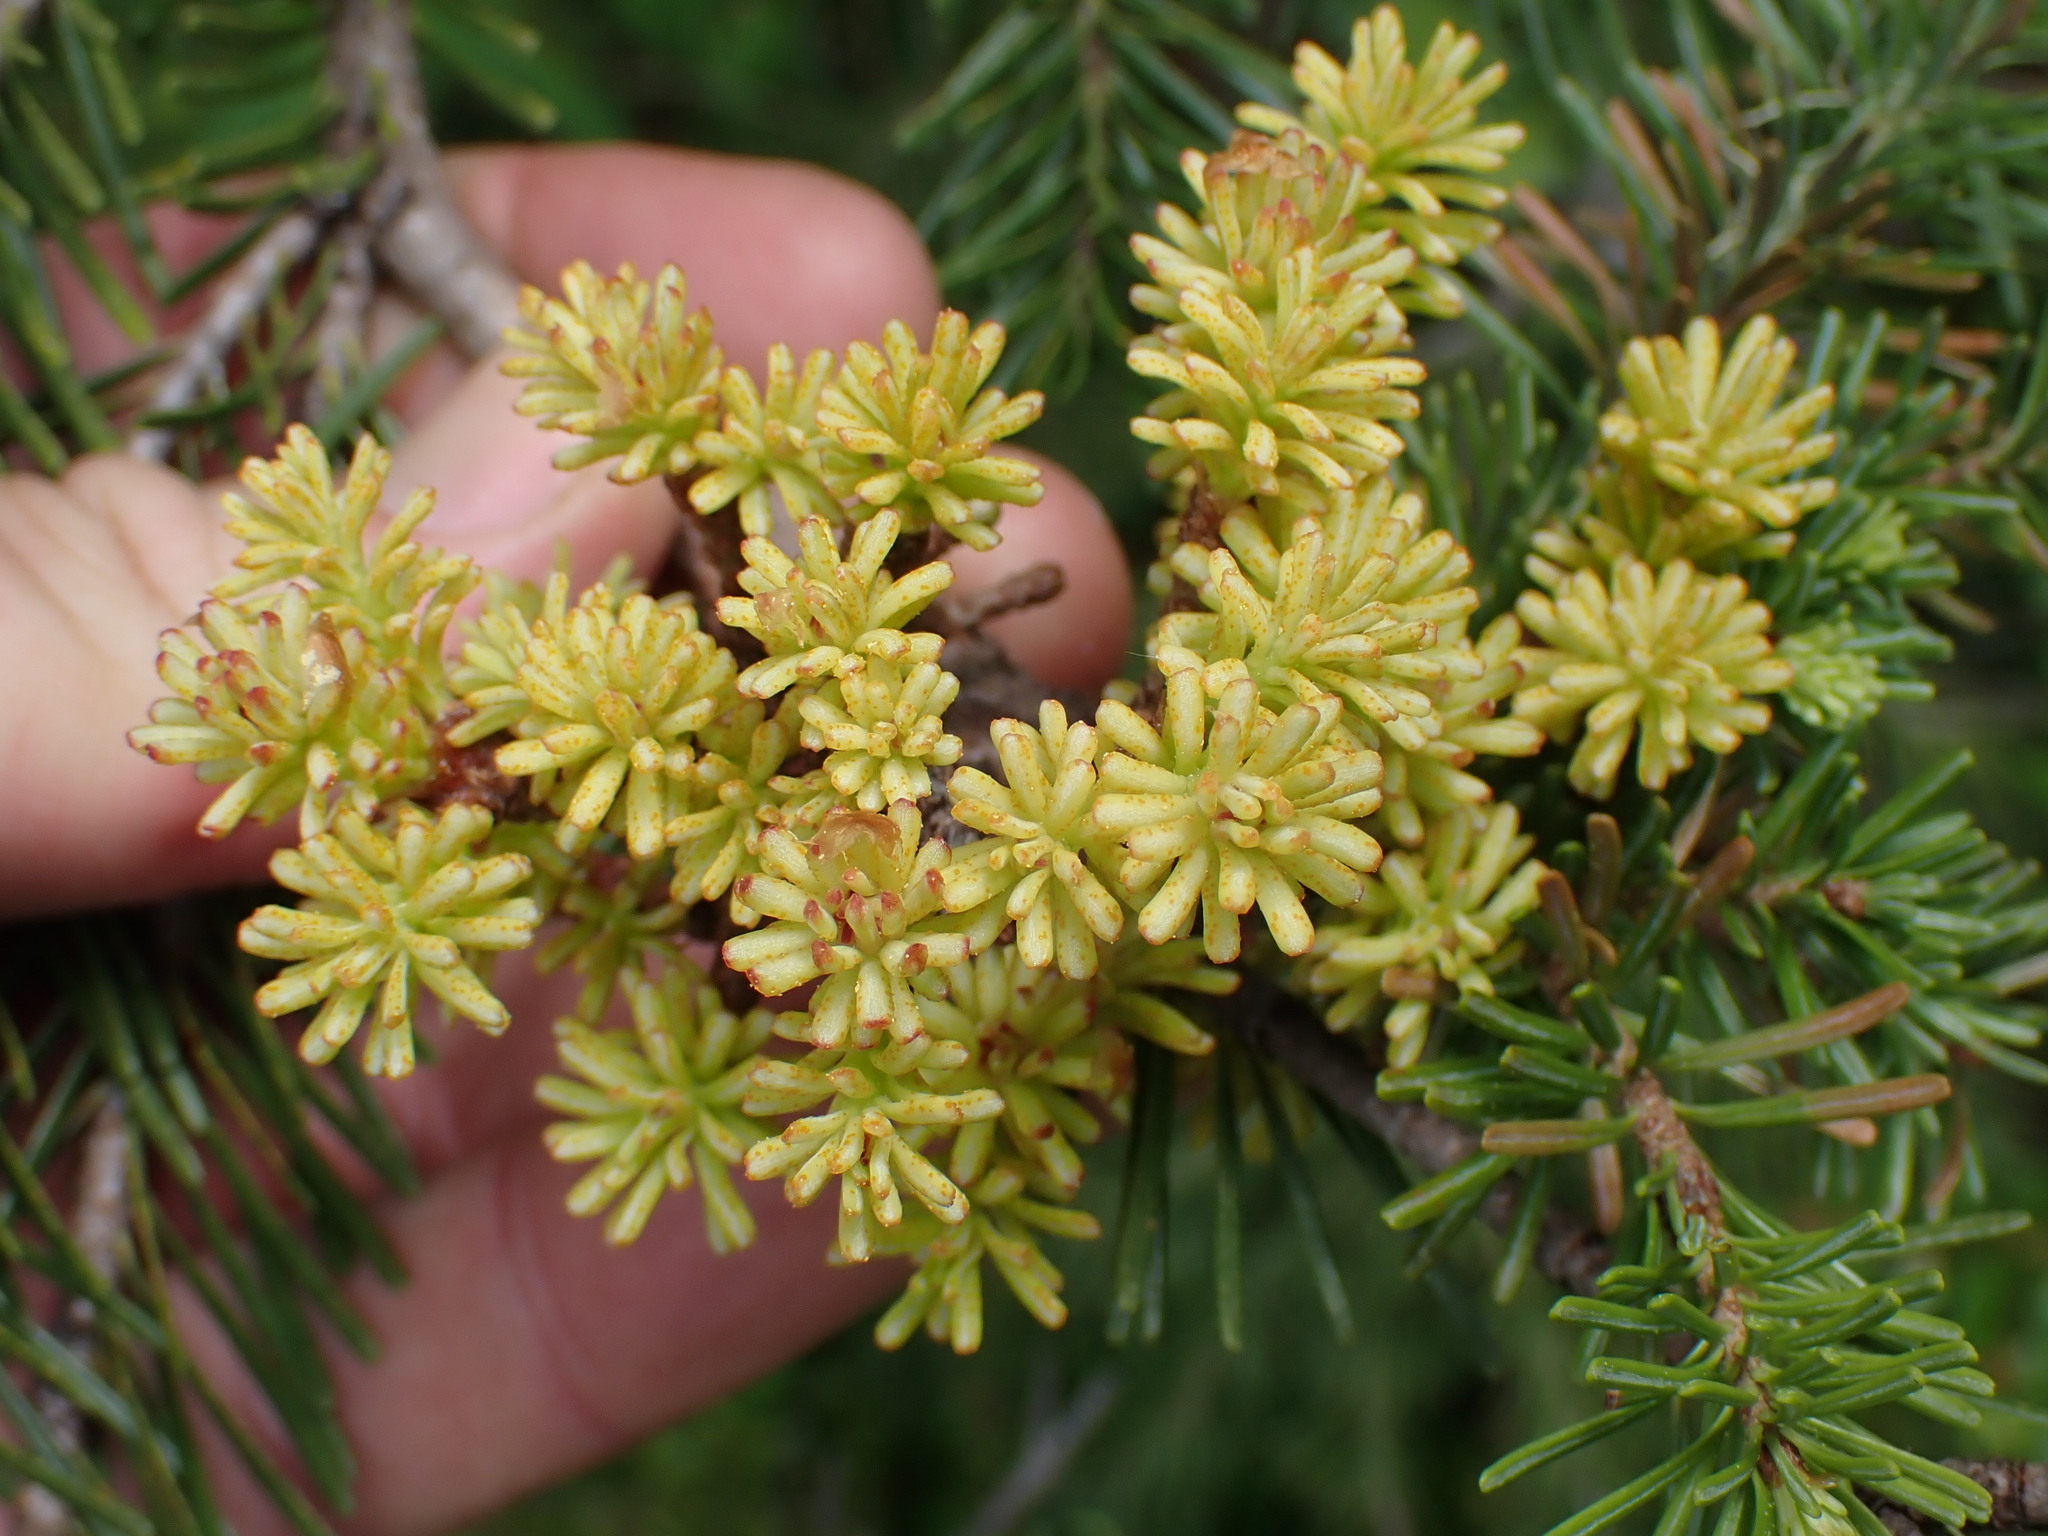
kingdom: Fungi
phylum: Basidiomycota
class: Pucciniomycetes
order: Pucciniales
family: Coleosporiaceae
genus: Chrysomyxa
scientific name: Chrysomyxa arctostaphyli
